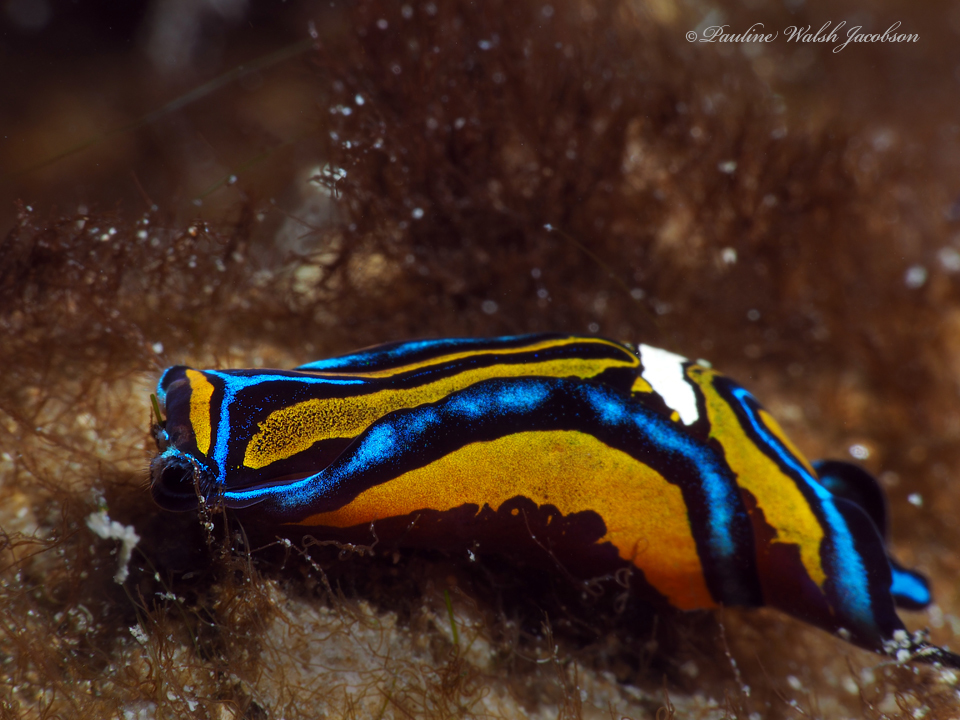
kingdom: Animalia
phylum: Mollusca
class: Gastropoda
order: Cephalaspidea
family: Aglajidae
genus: Chelidonura
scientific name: Chelidonura hirundinina
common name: Leech headshield slug
